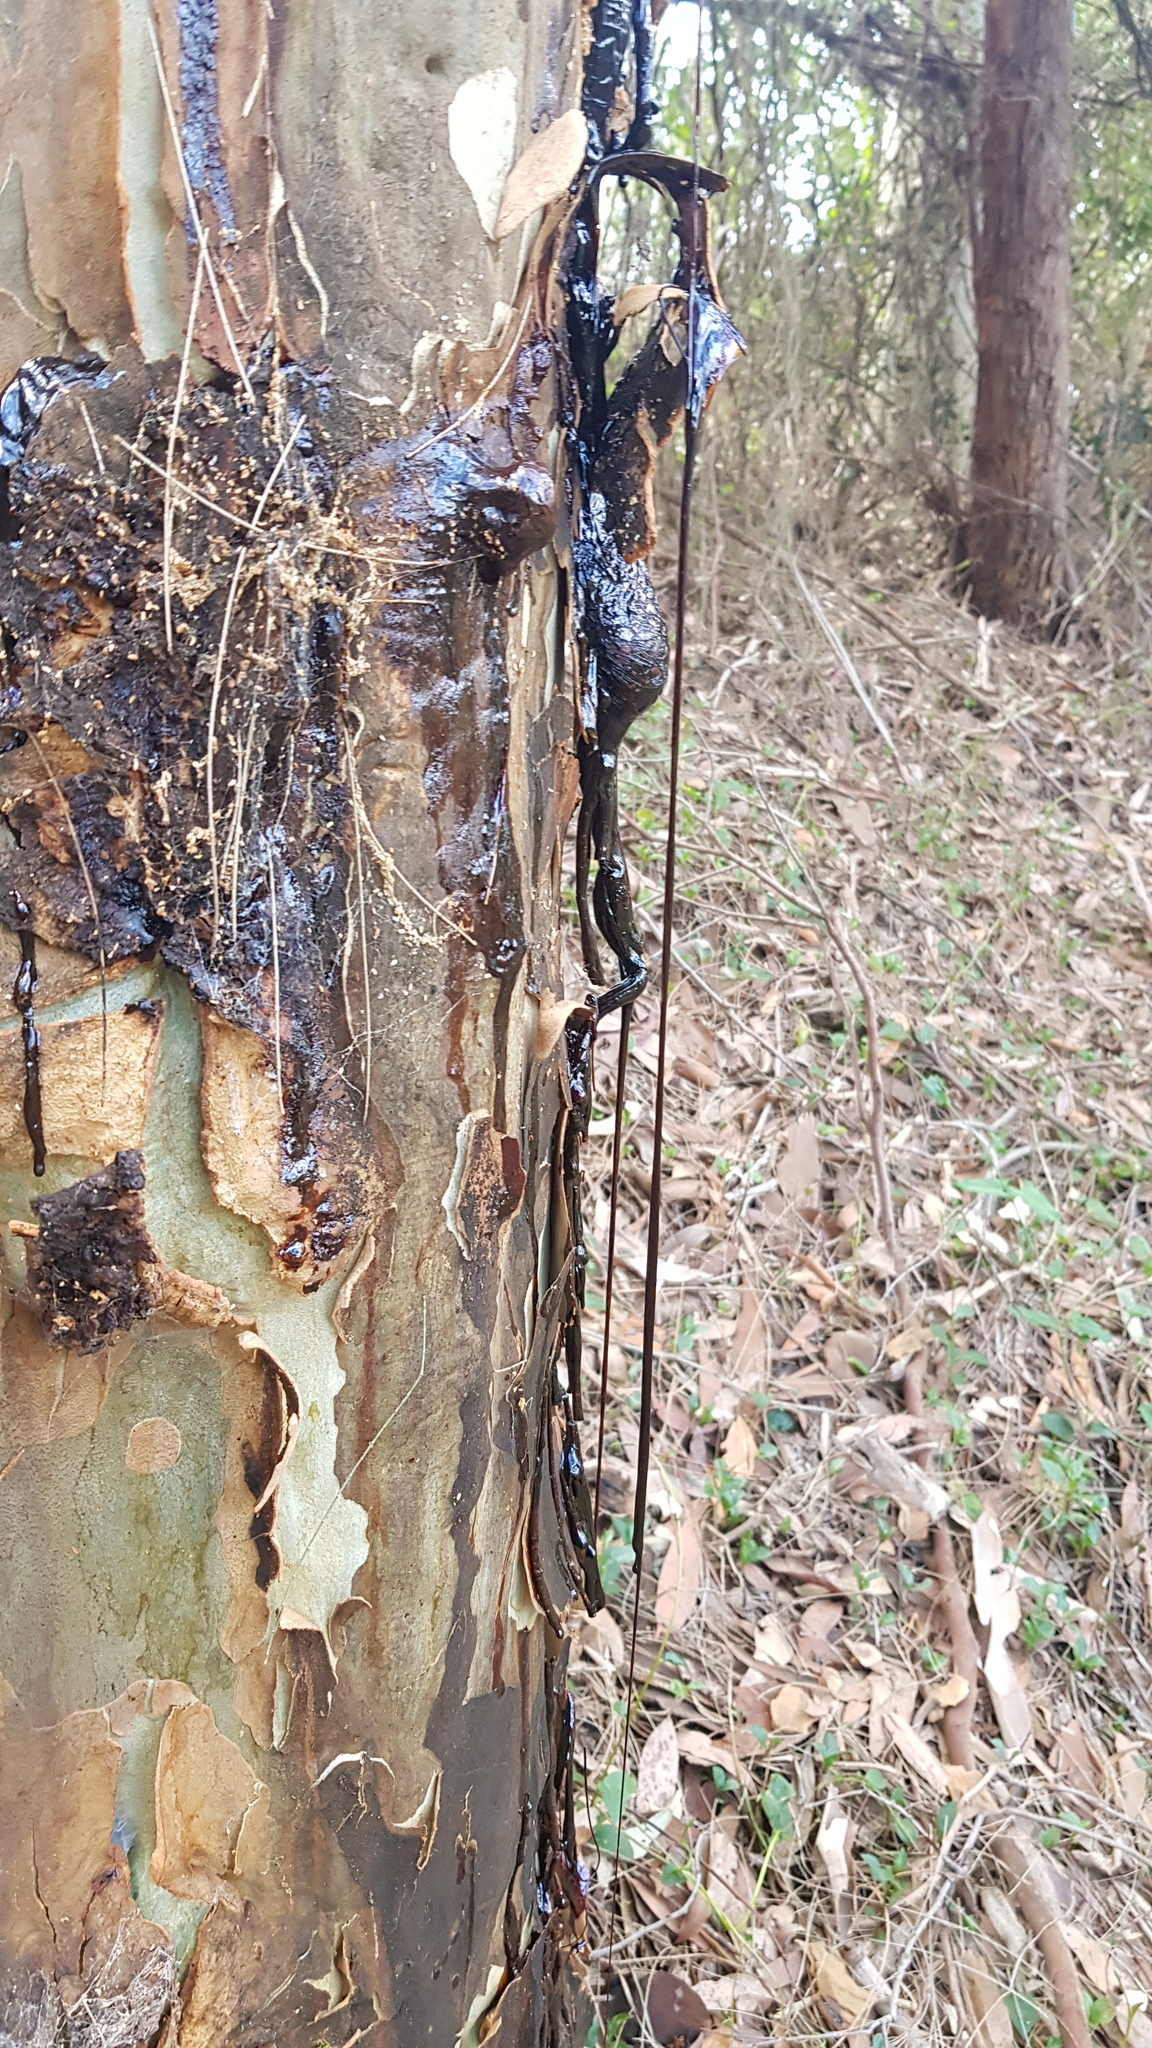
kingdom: Plantae
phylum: Tracheophyta
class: Magnoliopsida
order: Myrtales
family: Myrtaceae
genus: Corymbia
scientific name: Corymbia maculata
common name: Spotted gum
